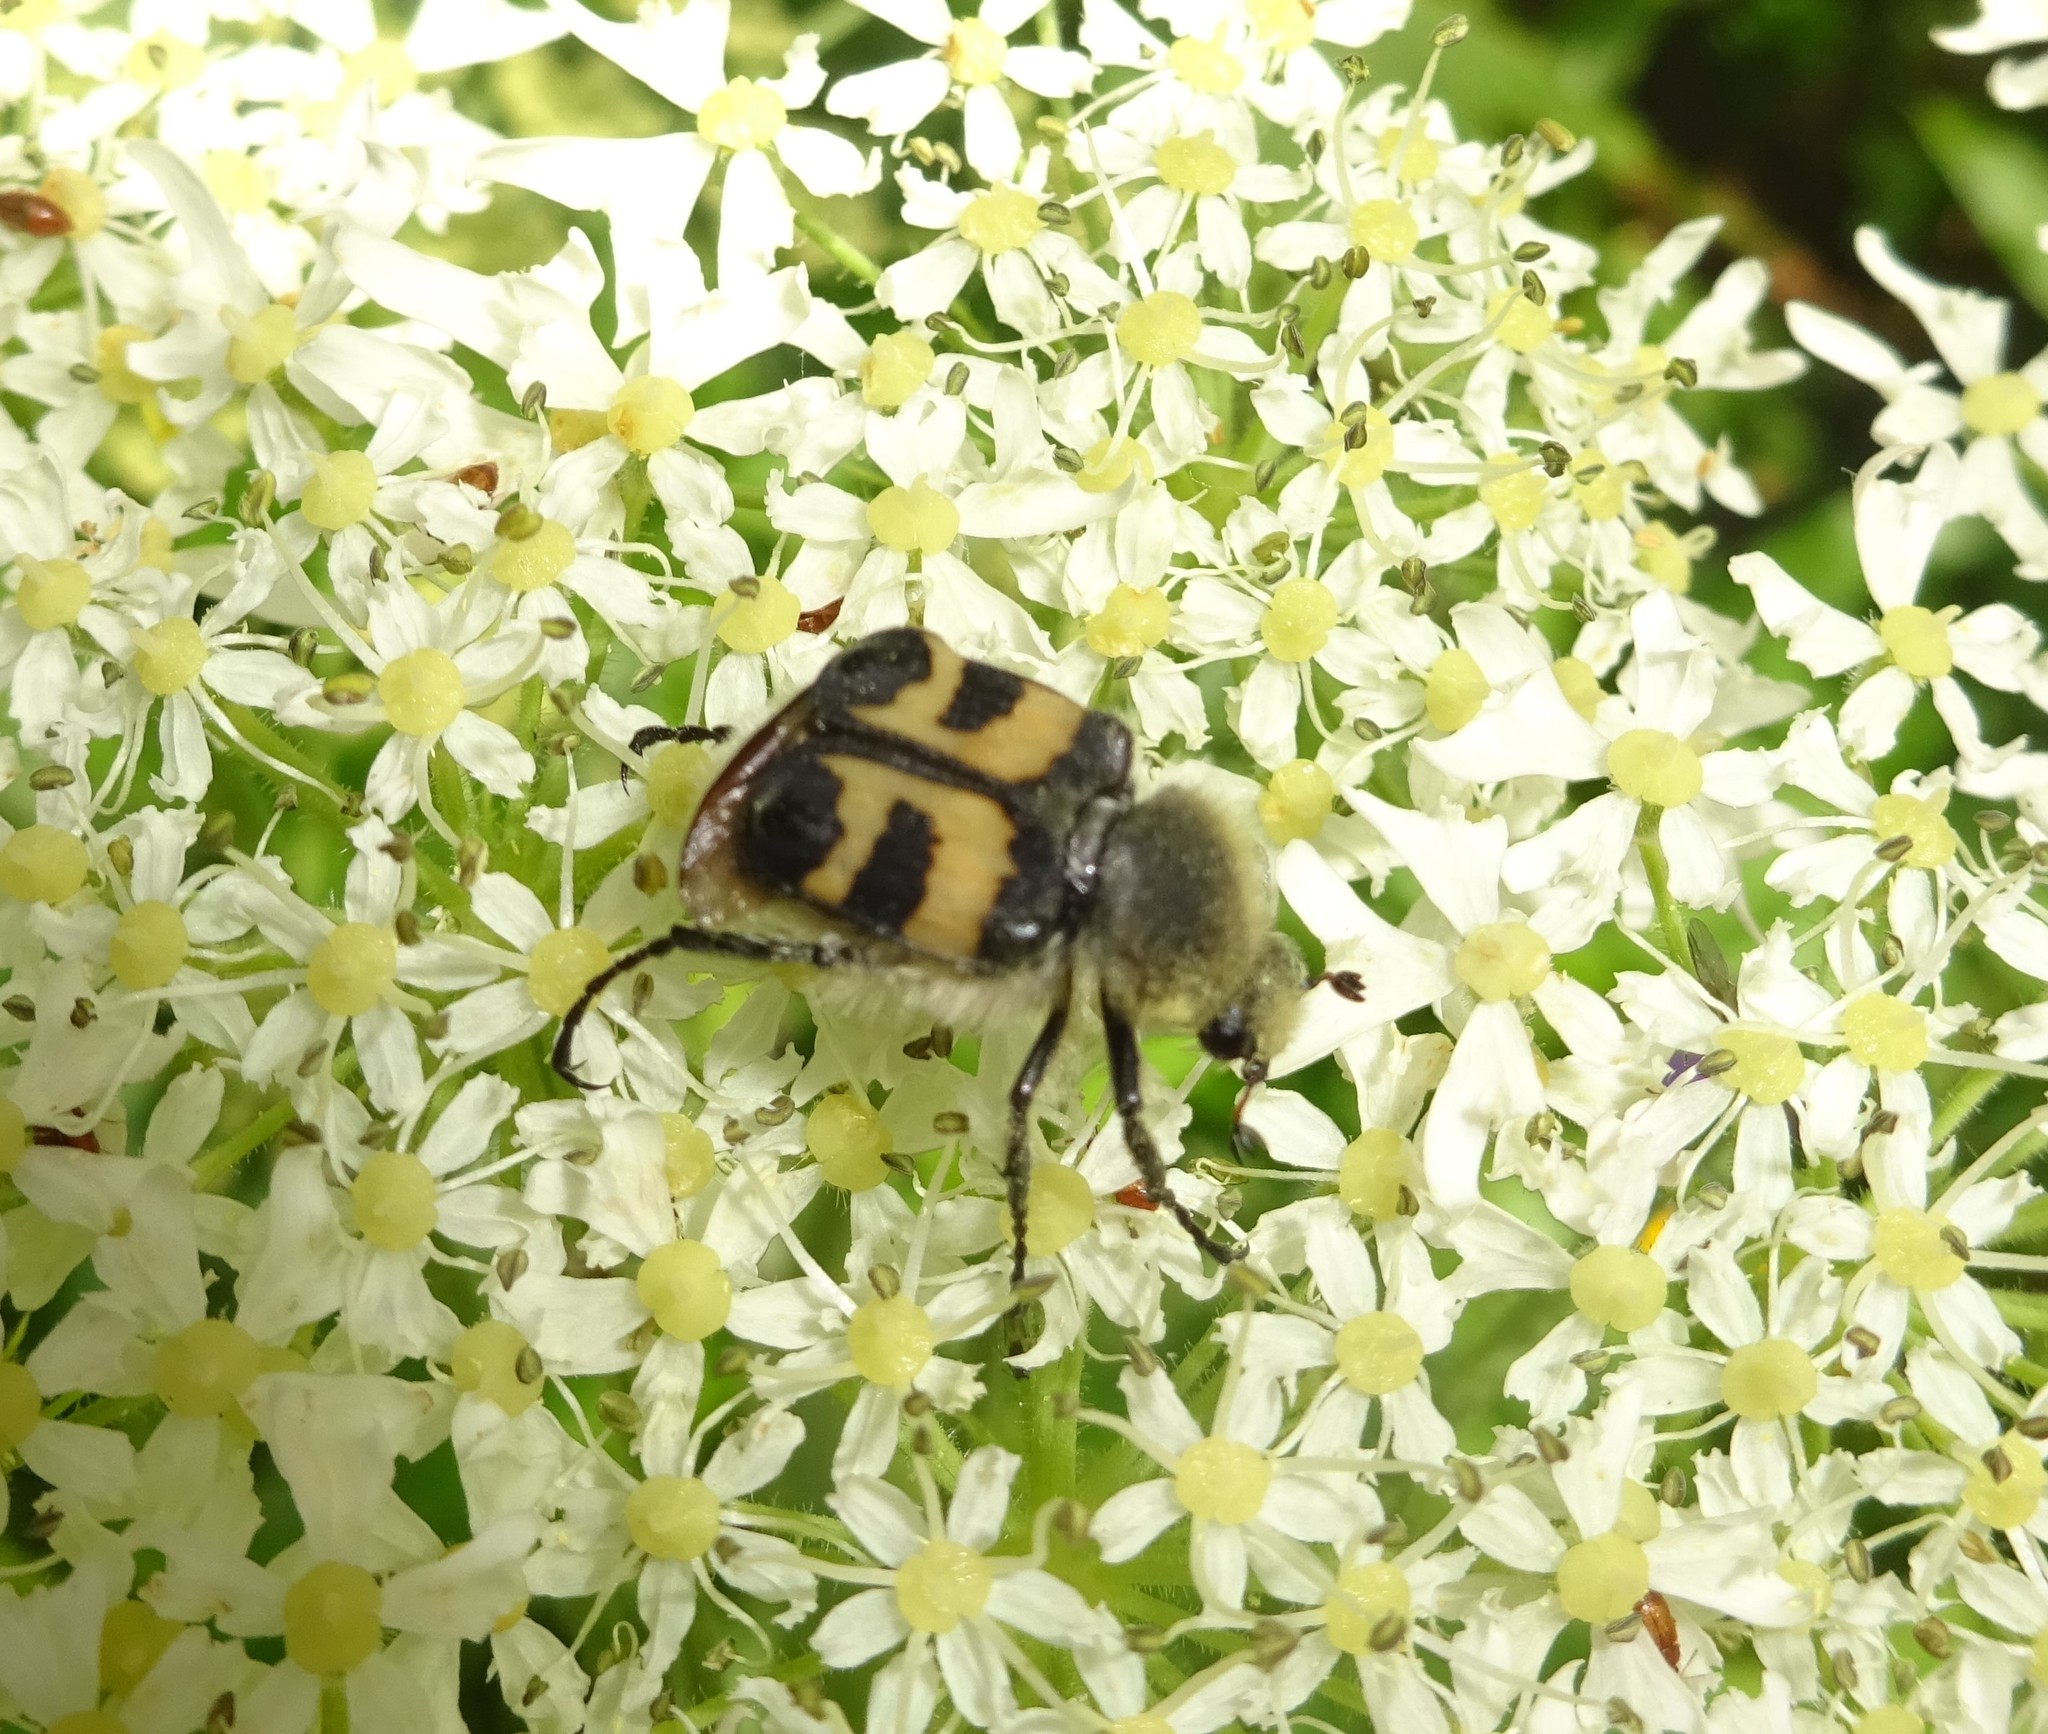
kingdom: Animalia
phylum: Arthropoda
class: Insecta
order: Coleoptera
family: Scarabaeidae
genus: Trichius
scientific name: Trichius fasciatus
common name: Bee beetle
